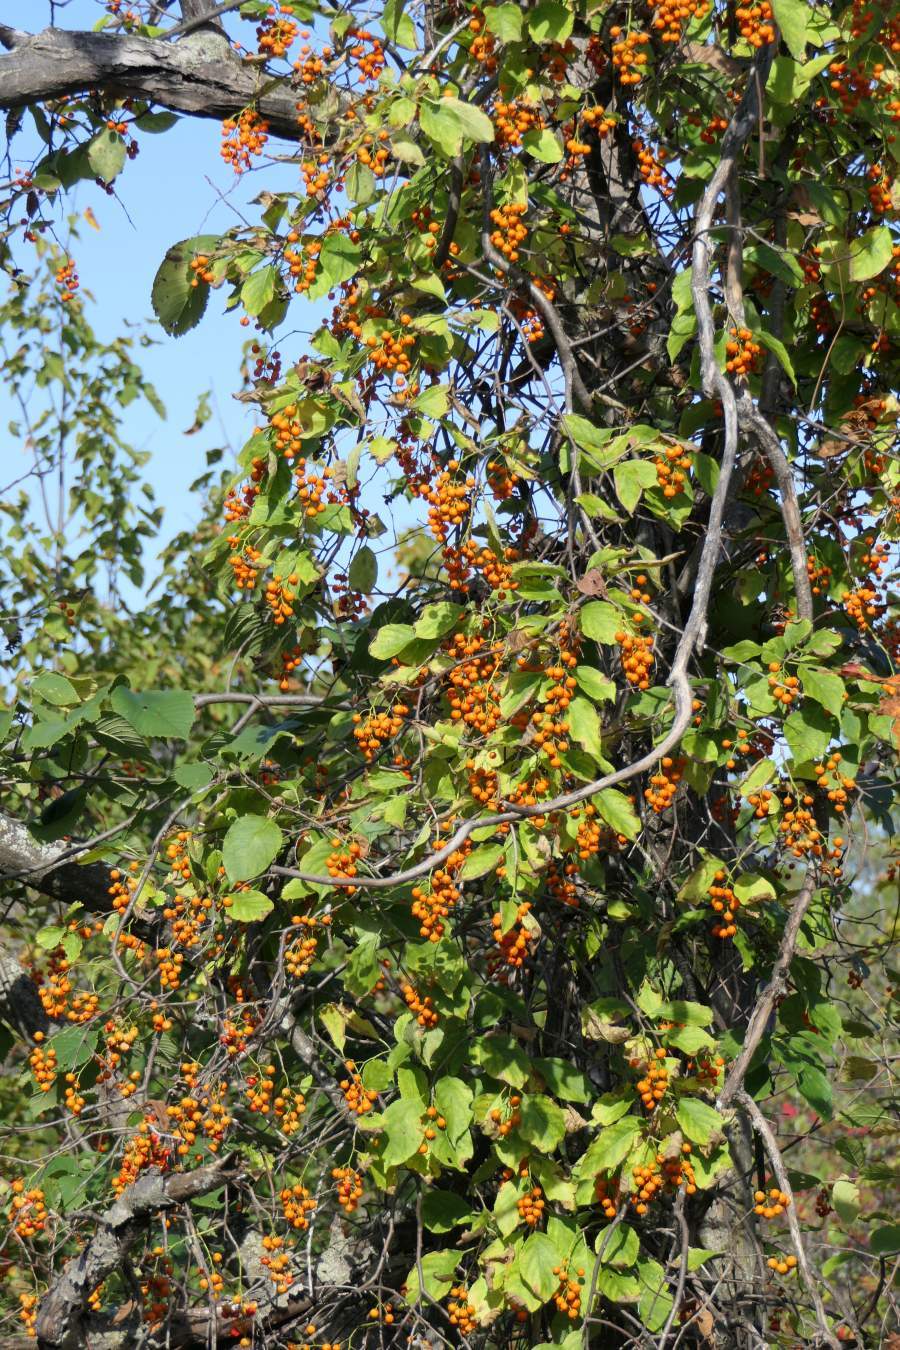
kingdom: Plantae
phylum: Tracheophyta
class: Magnoliopsida
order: Celastrales
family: Celastraceae
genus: Celastrus
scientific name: Celastrus scandens
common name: American bittersweet
